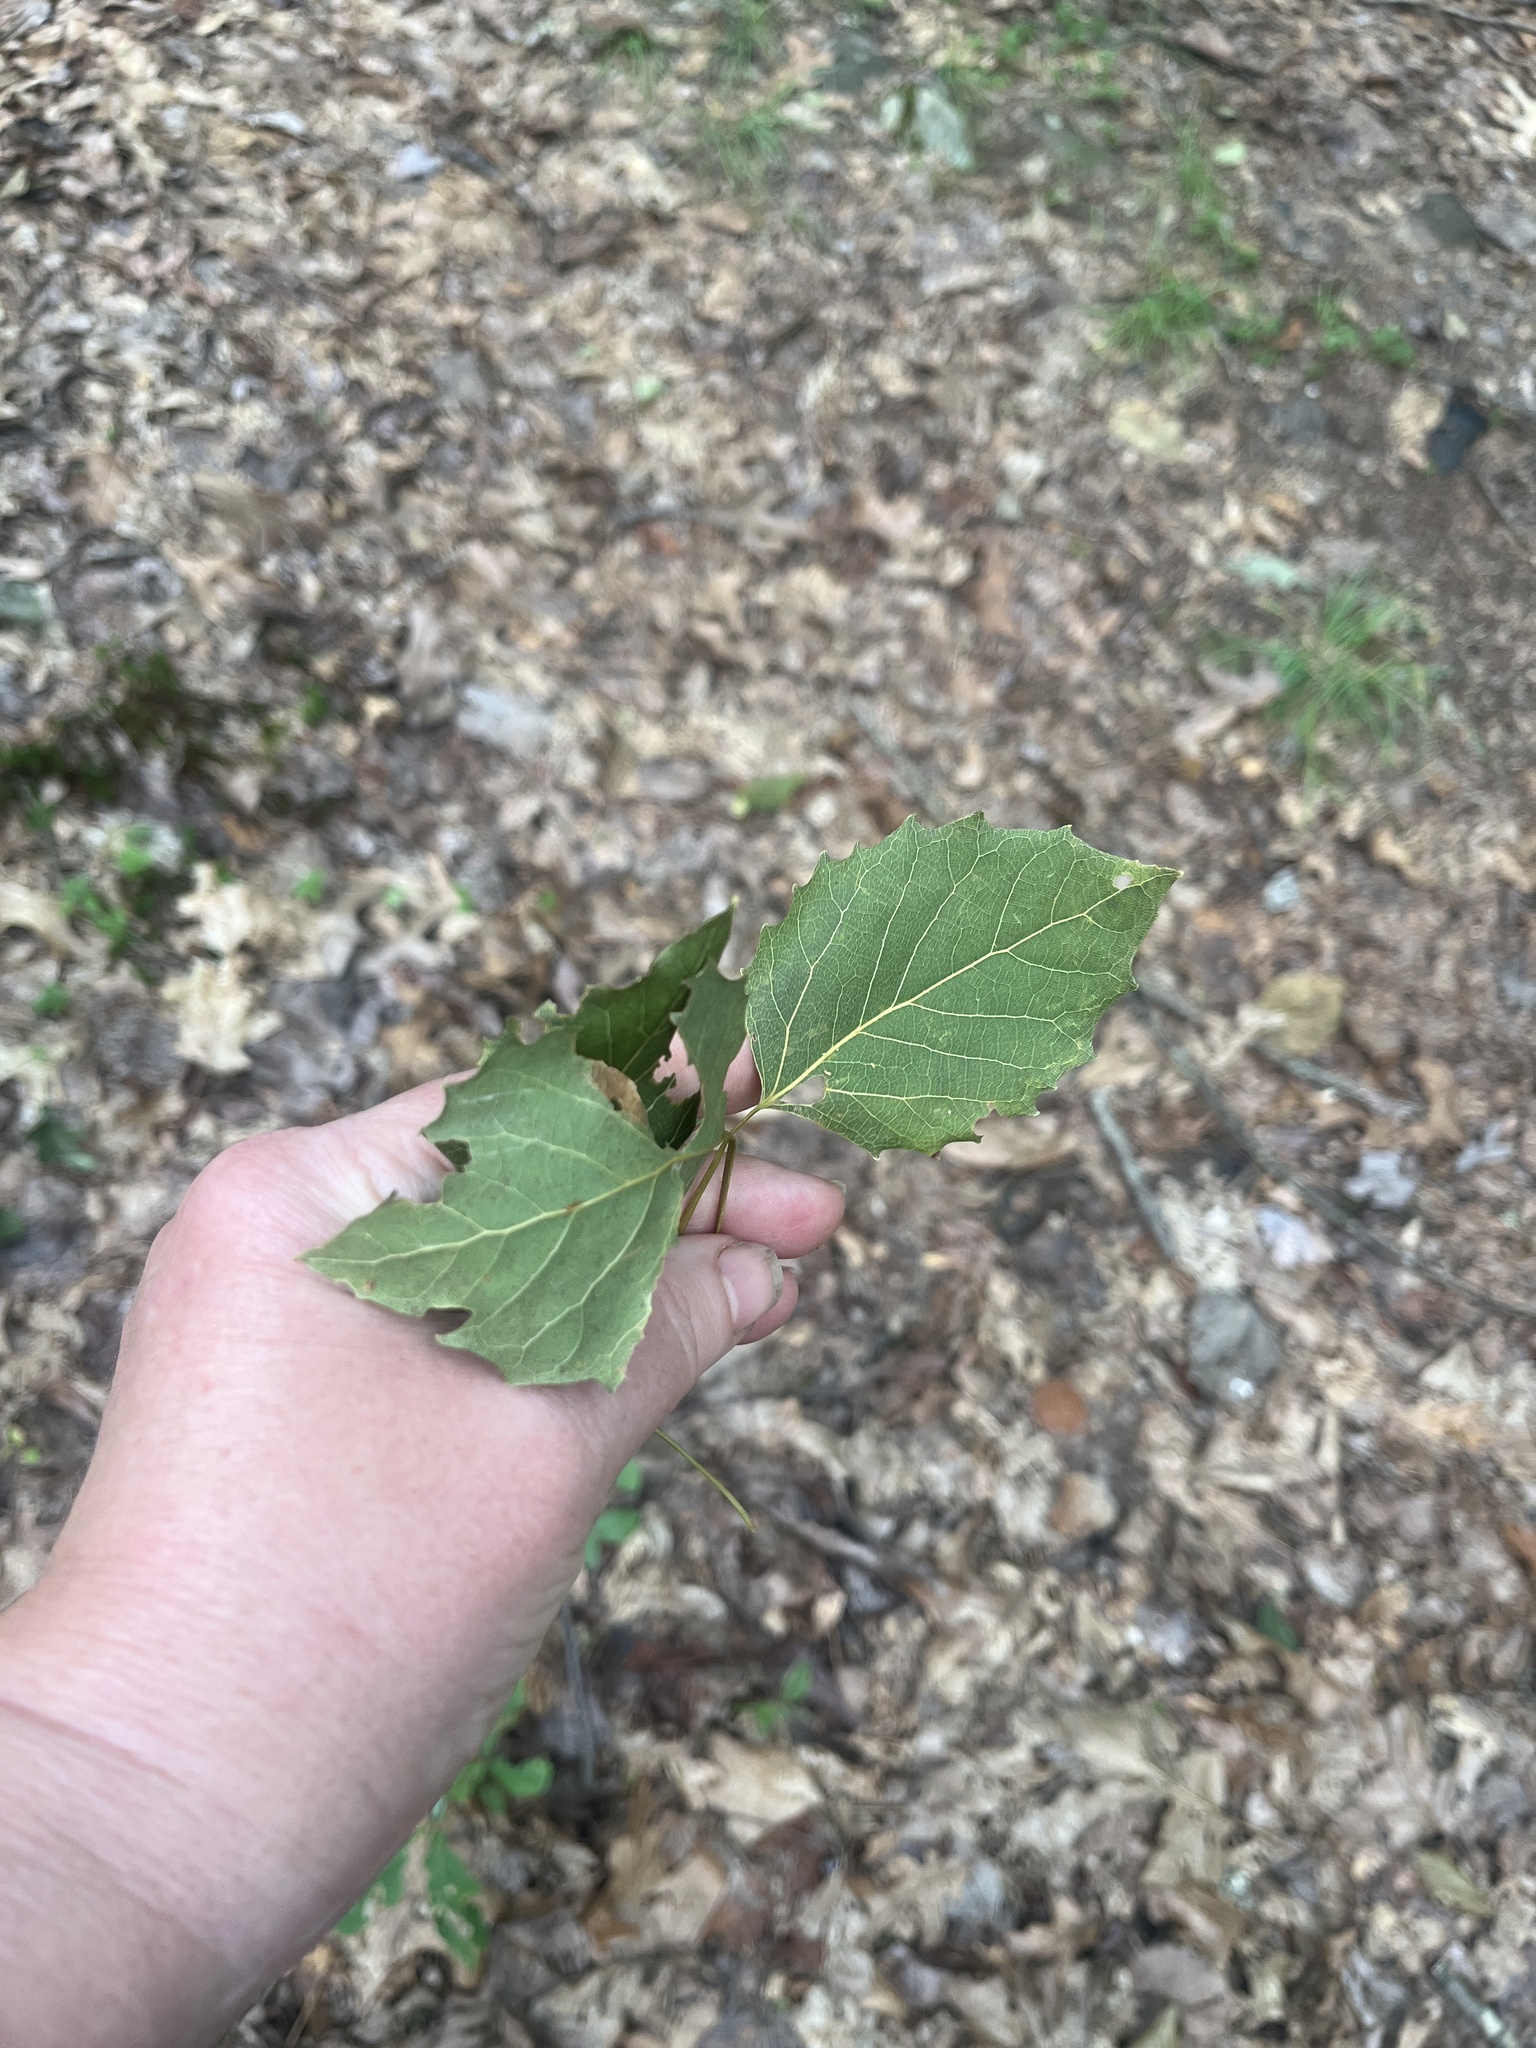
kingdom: Plantae
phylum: Tracheophyta
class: Magnoliopsida
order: Malpighiales
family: Salicaceae
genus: Populus
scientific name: Populus grandidentata
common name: Bigtooth aspen
